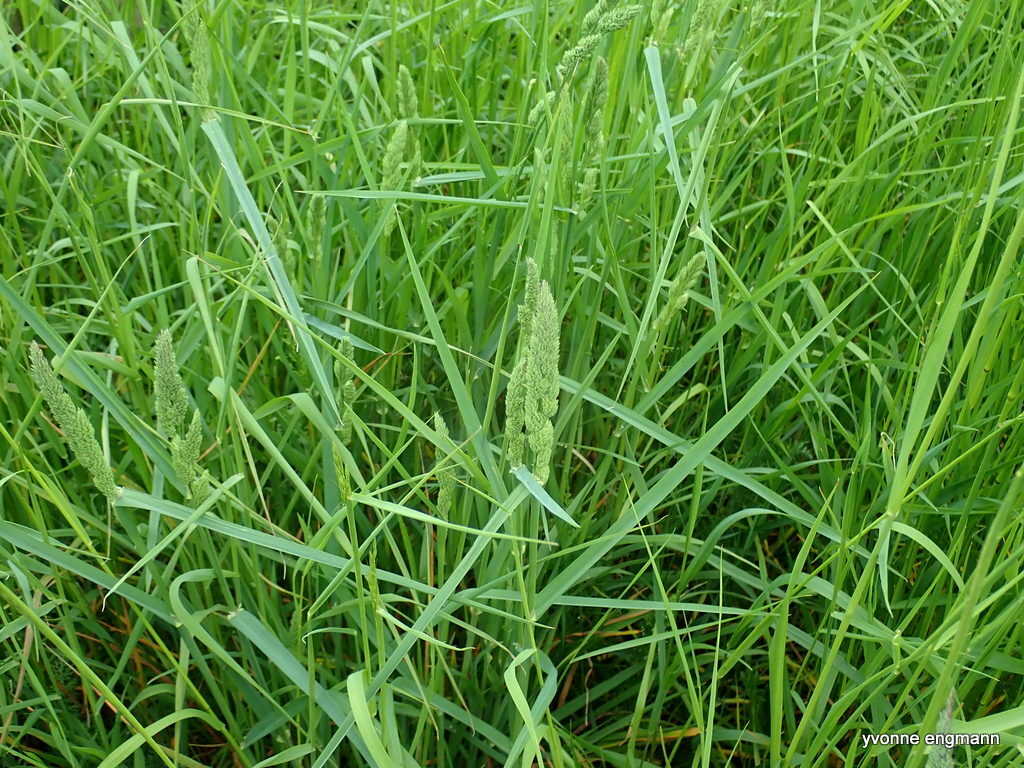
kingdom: Plantae
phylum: Tracheophyta
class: Liliopsida
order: Poales
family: Poaceae
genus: Dactylis
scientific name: Dactylis glomerata
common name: Orchardgrass
